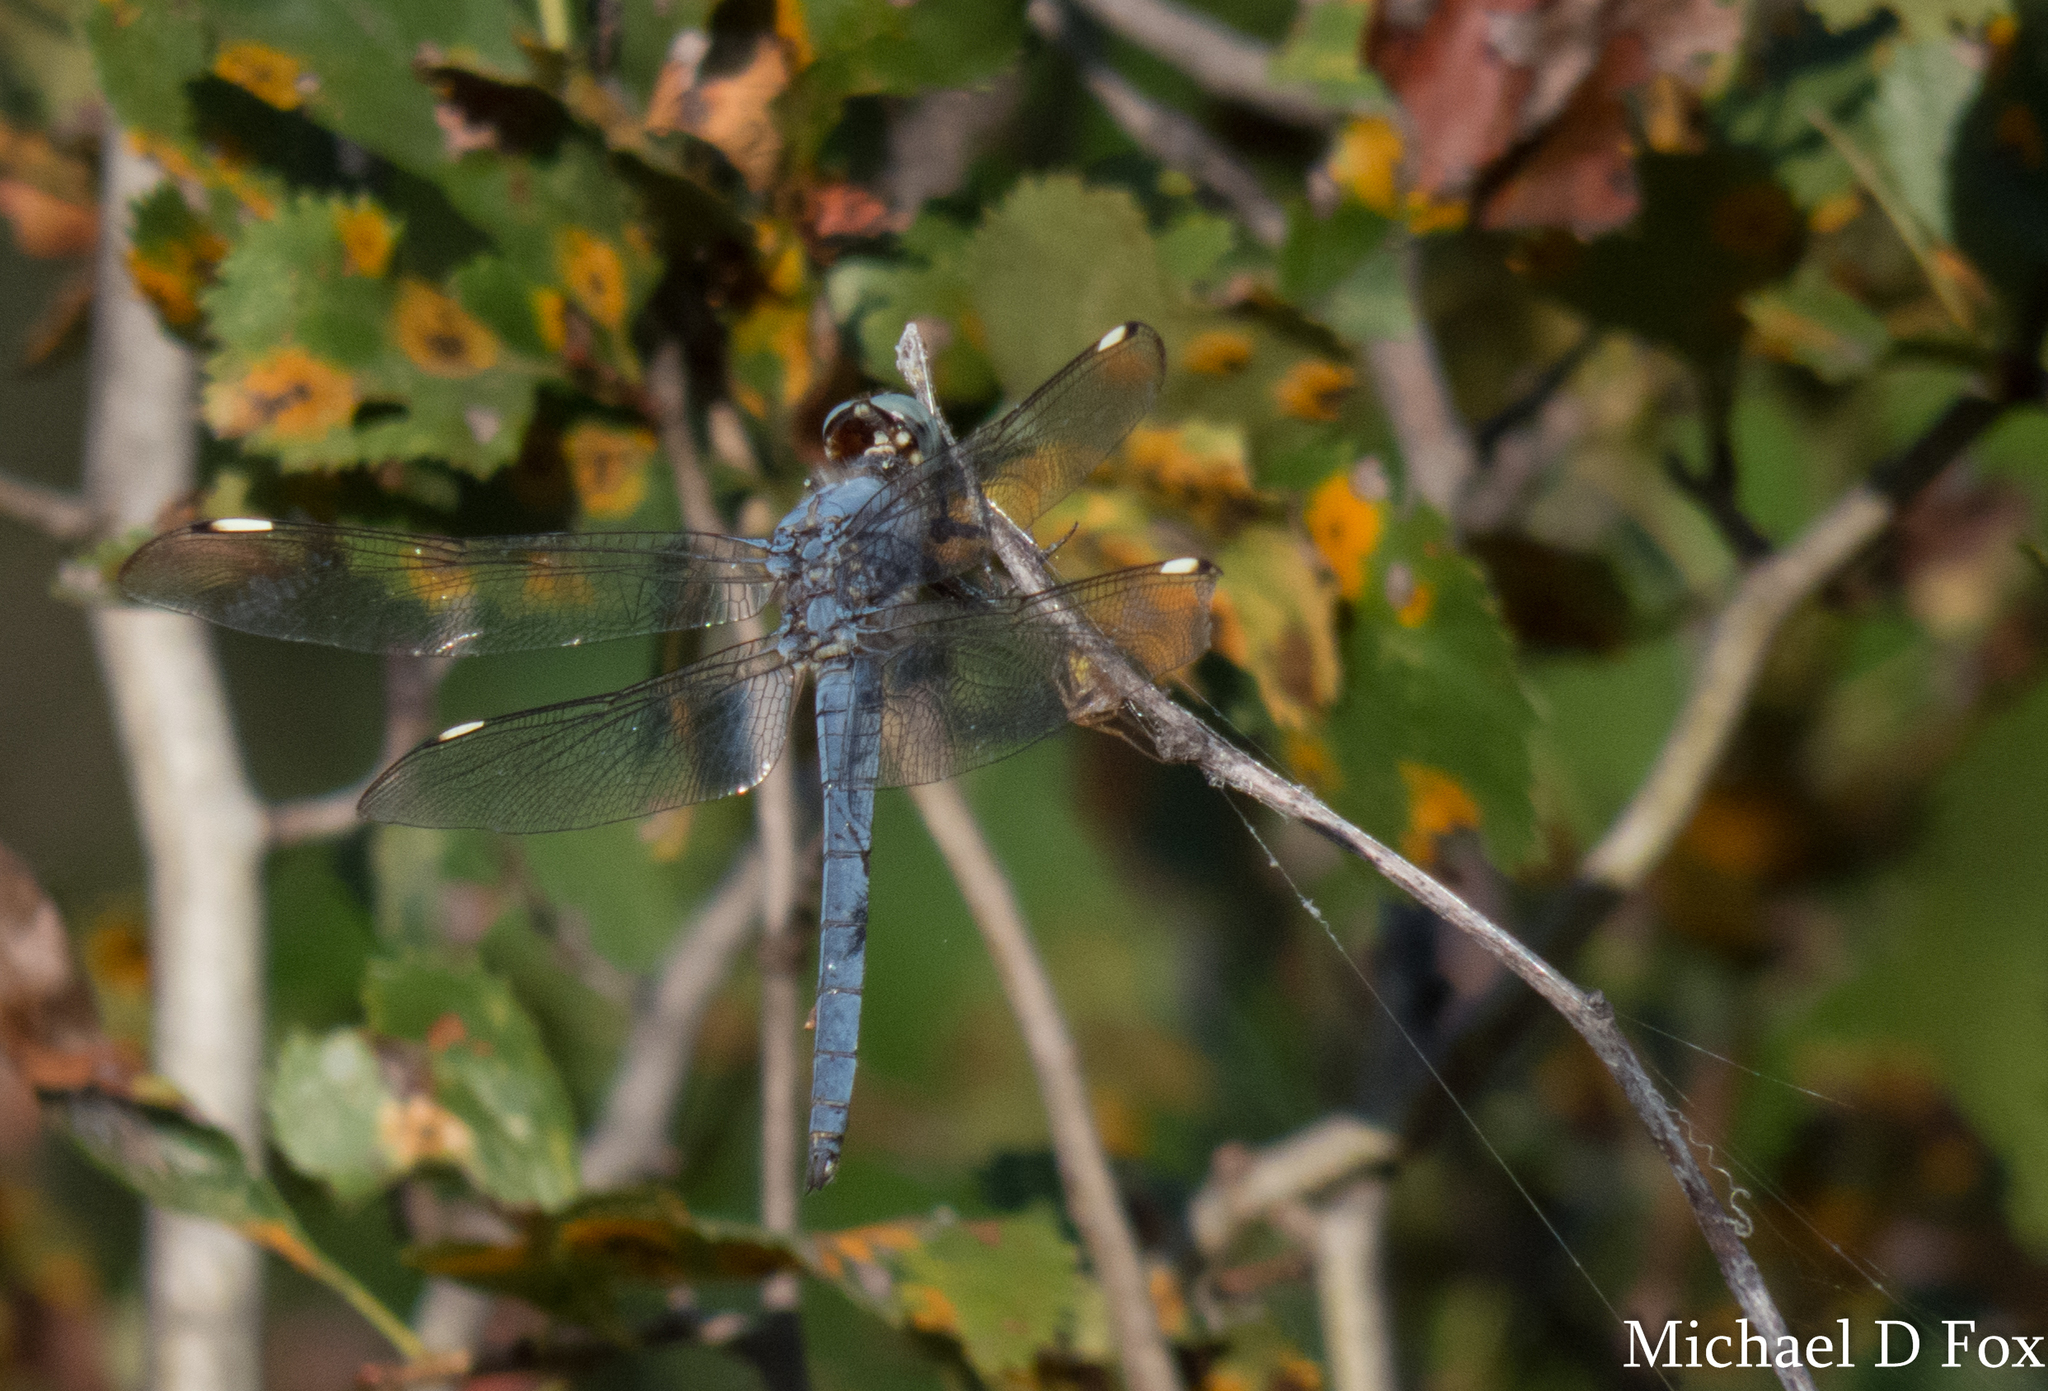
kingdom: Animalia
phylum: Arthropoda
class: Insecta
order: Odonata
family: Libellulidae
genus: Libellula
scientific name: Libellula comanche
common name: Comanche skimmer
